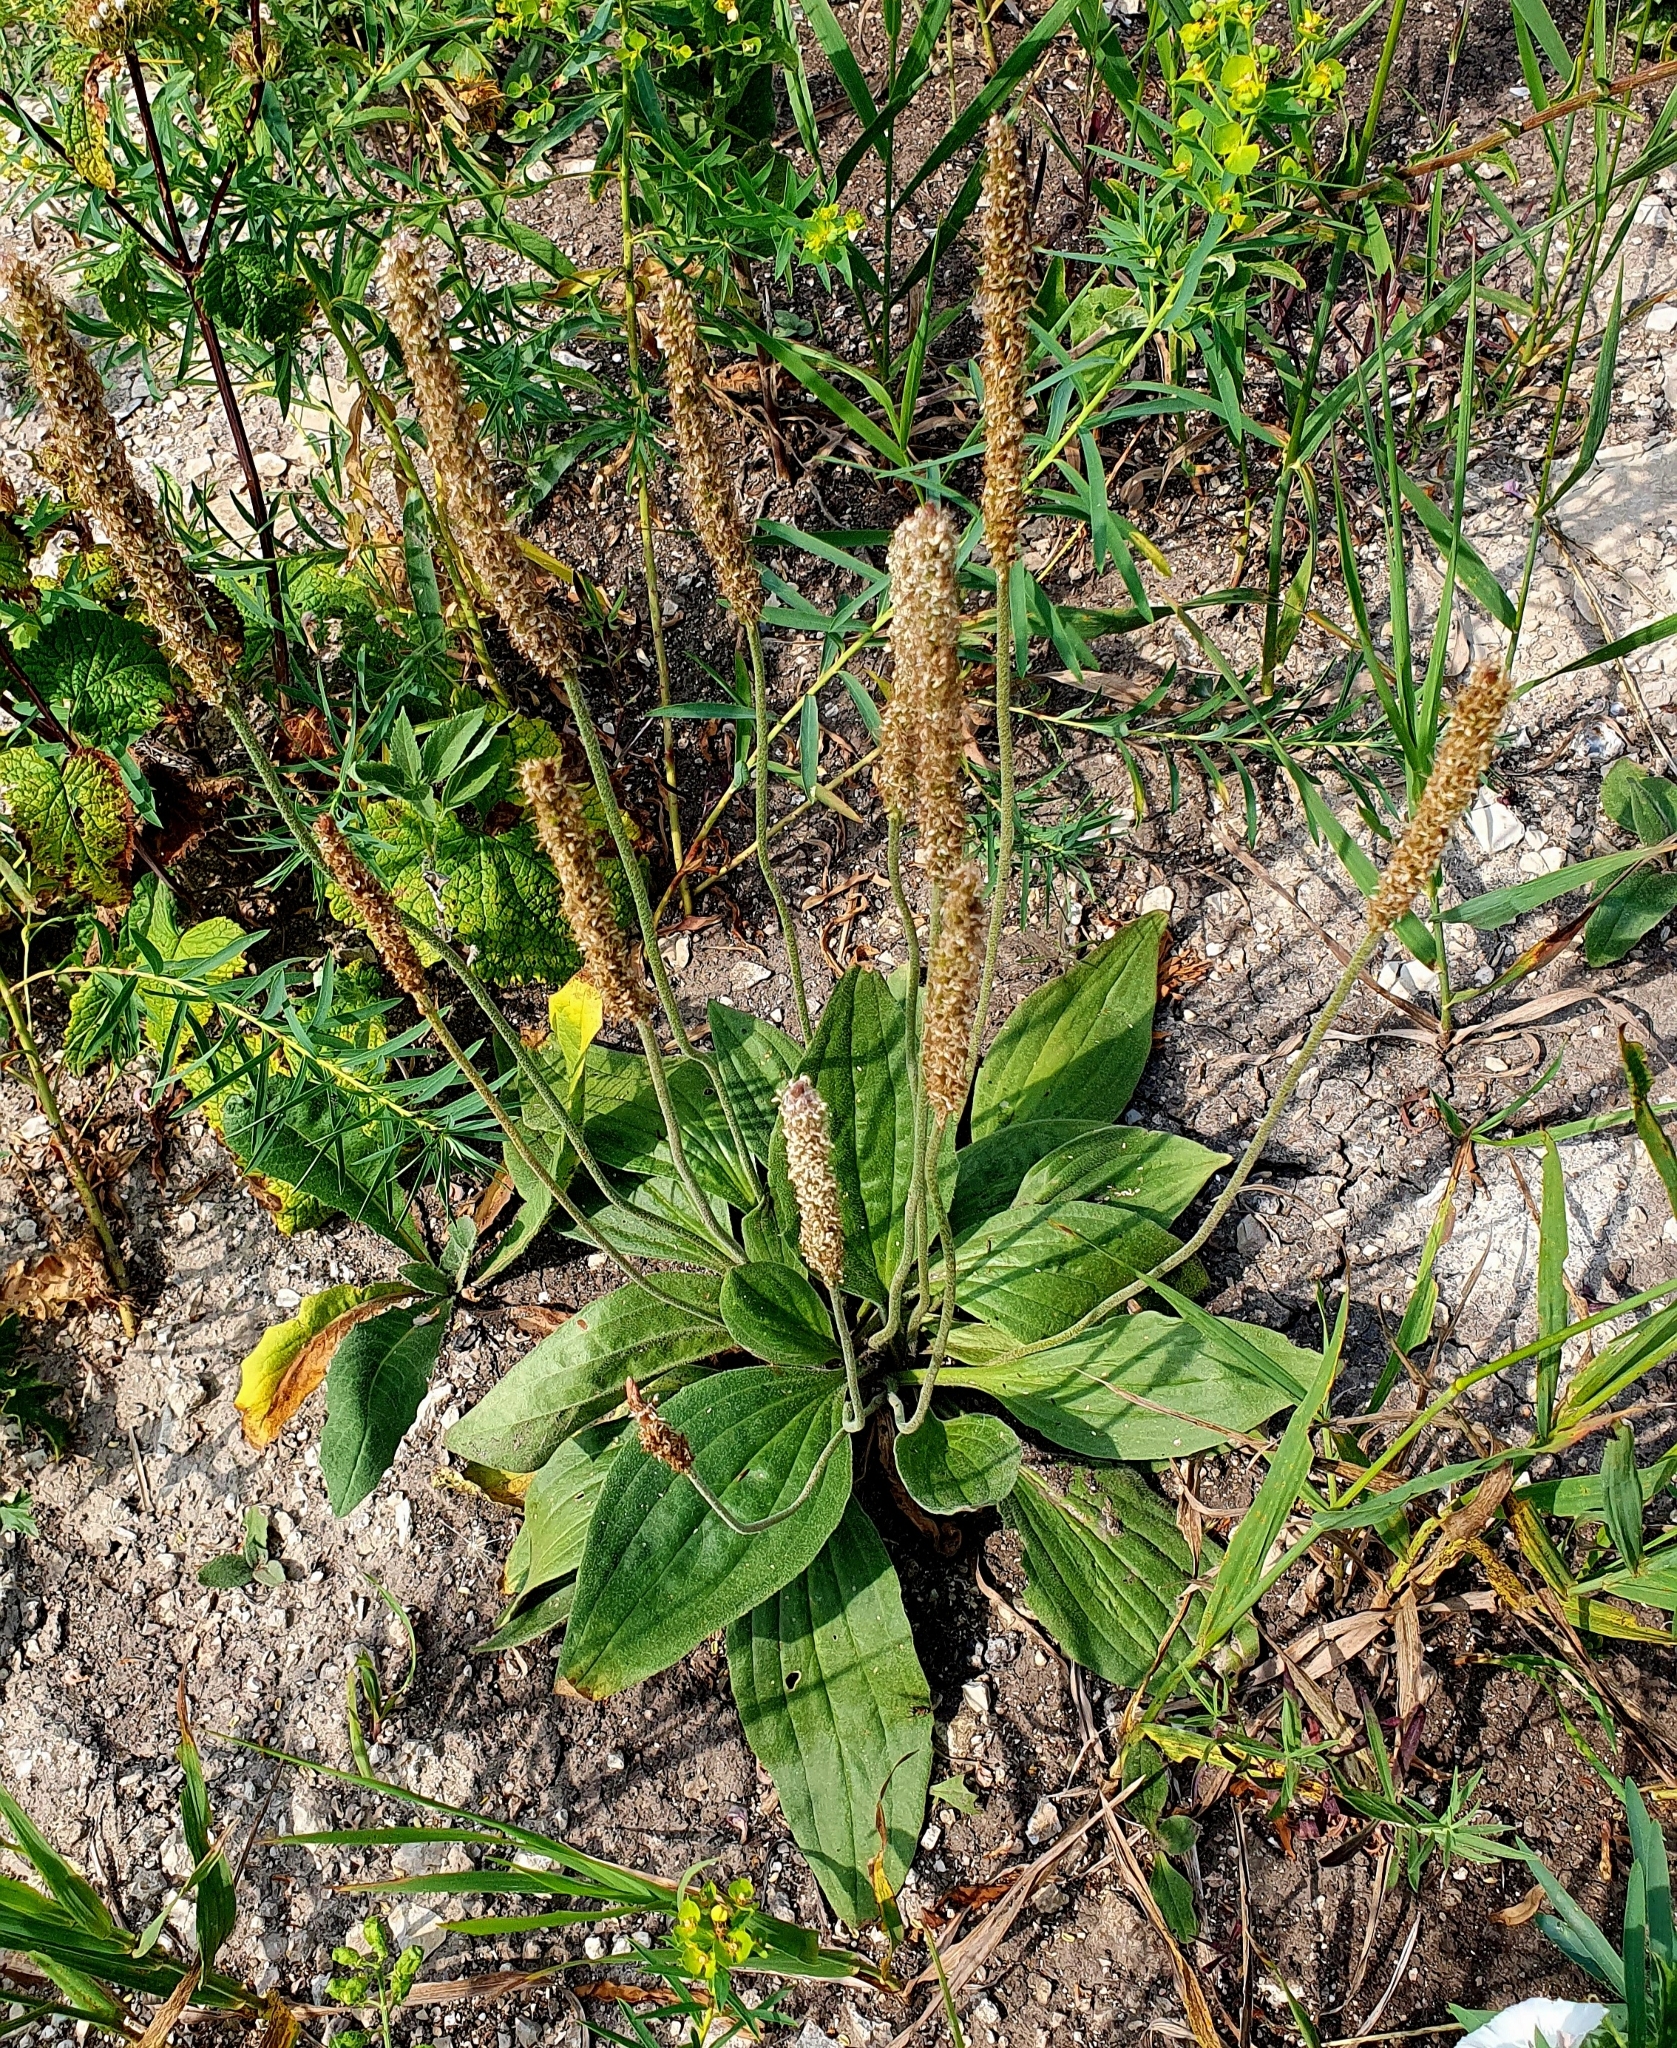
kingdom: Plantae
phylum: Tracheophyta
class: Magnoliopsida
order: Lamiales
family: Plantaginaceae
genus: Plantago
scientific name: Plantago urvillei
